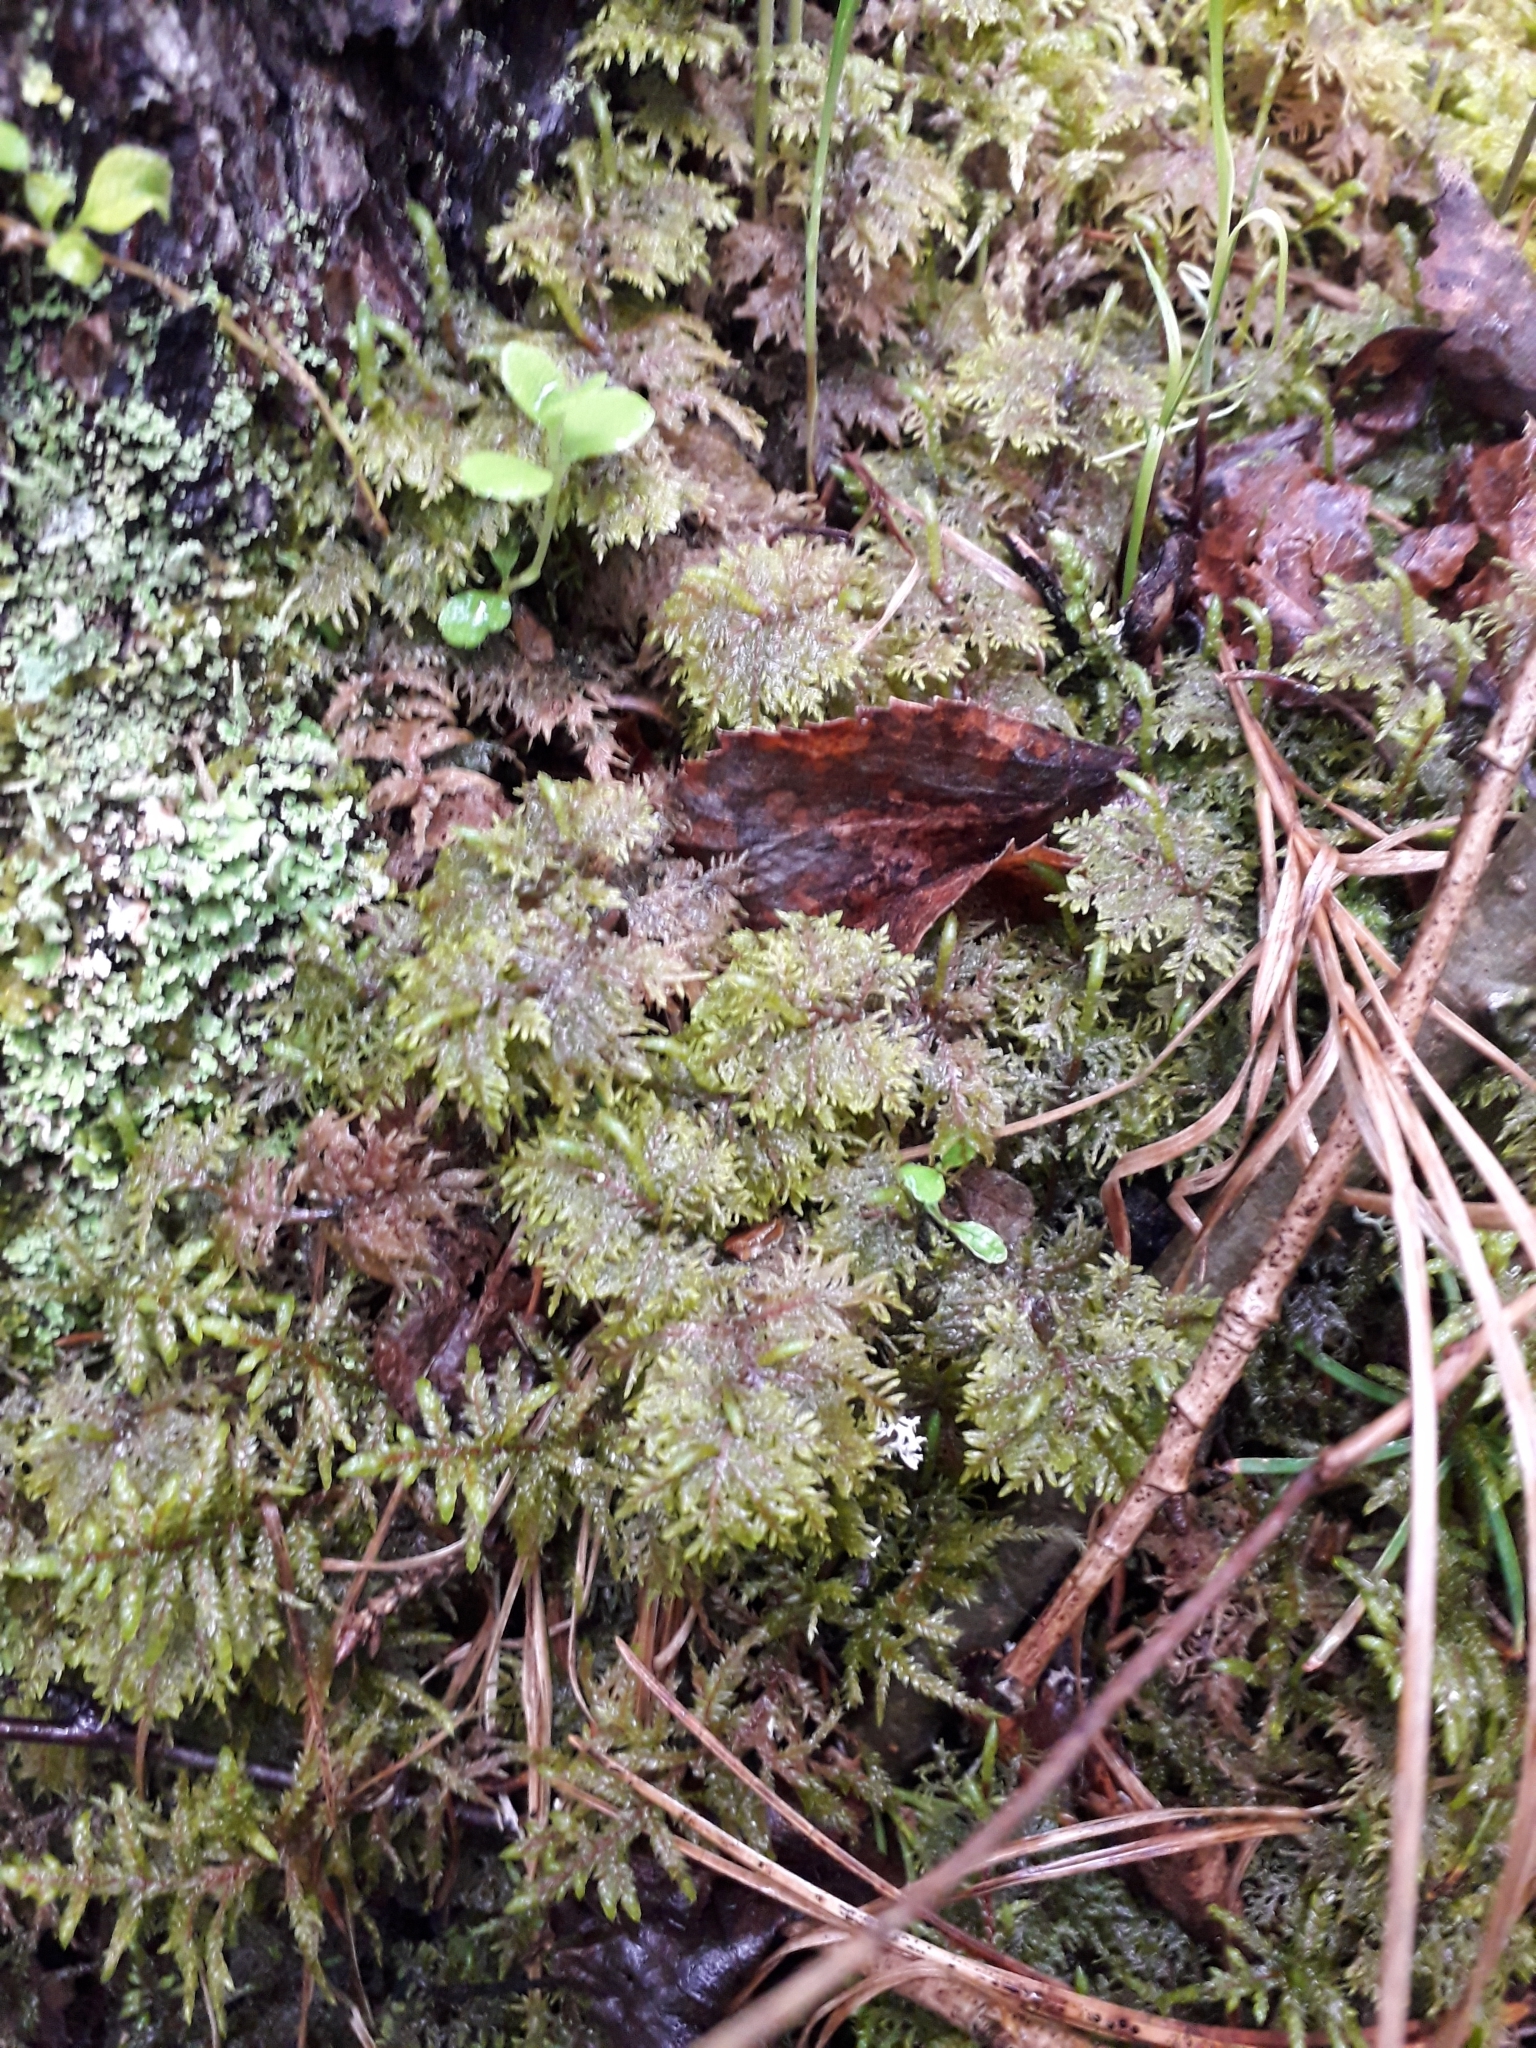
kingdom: Plantae
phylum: Bryophyta
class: Bryopsida
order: Hypnales
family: Hylocomiaceae
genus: Hylocomium
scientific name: Hylocomium splendens
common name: Stairstep moss
